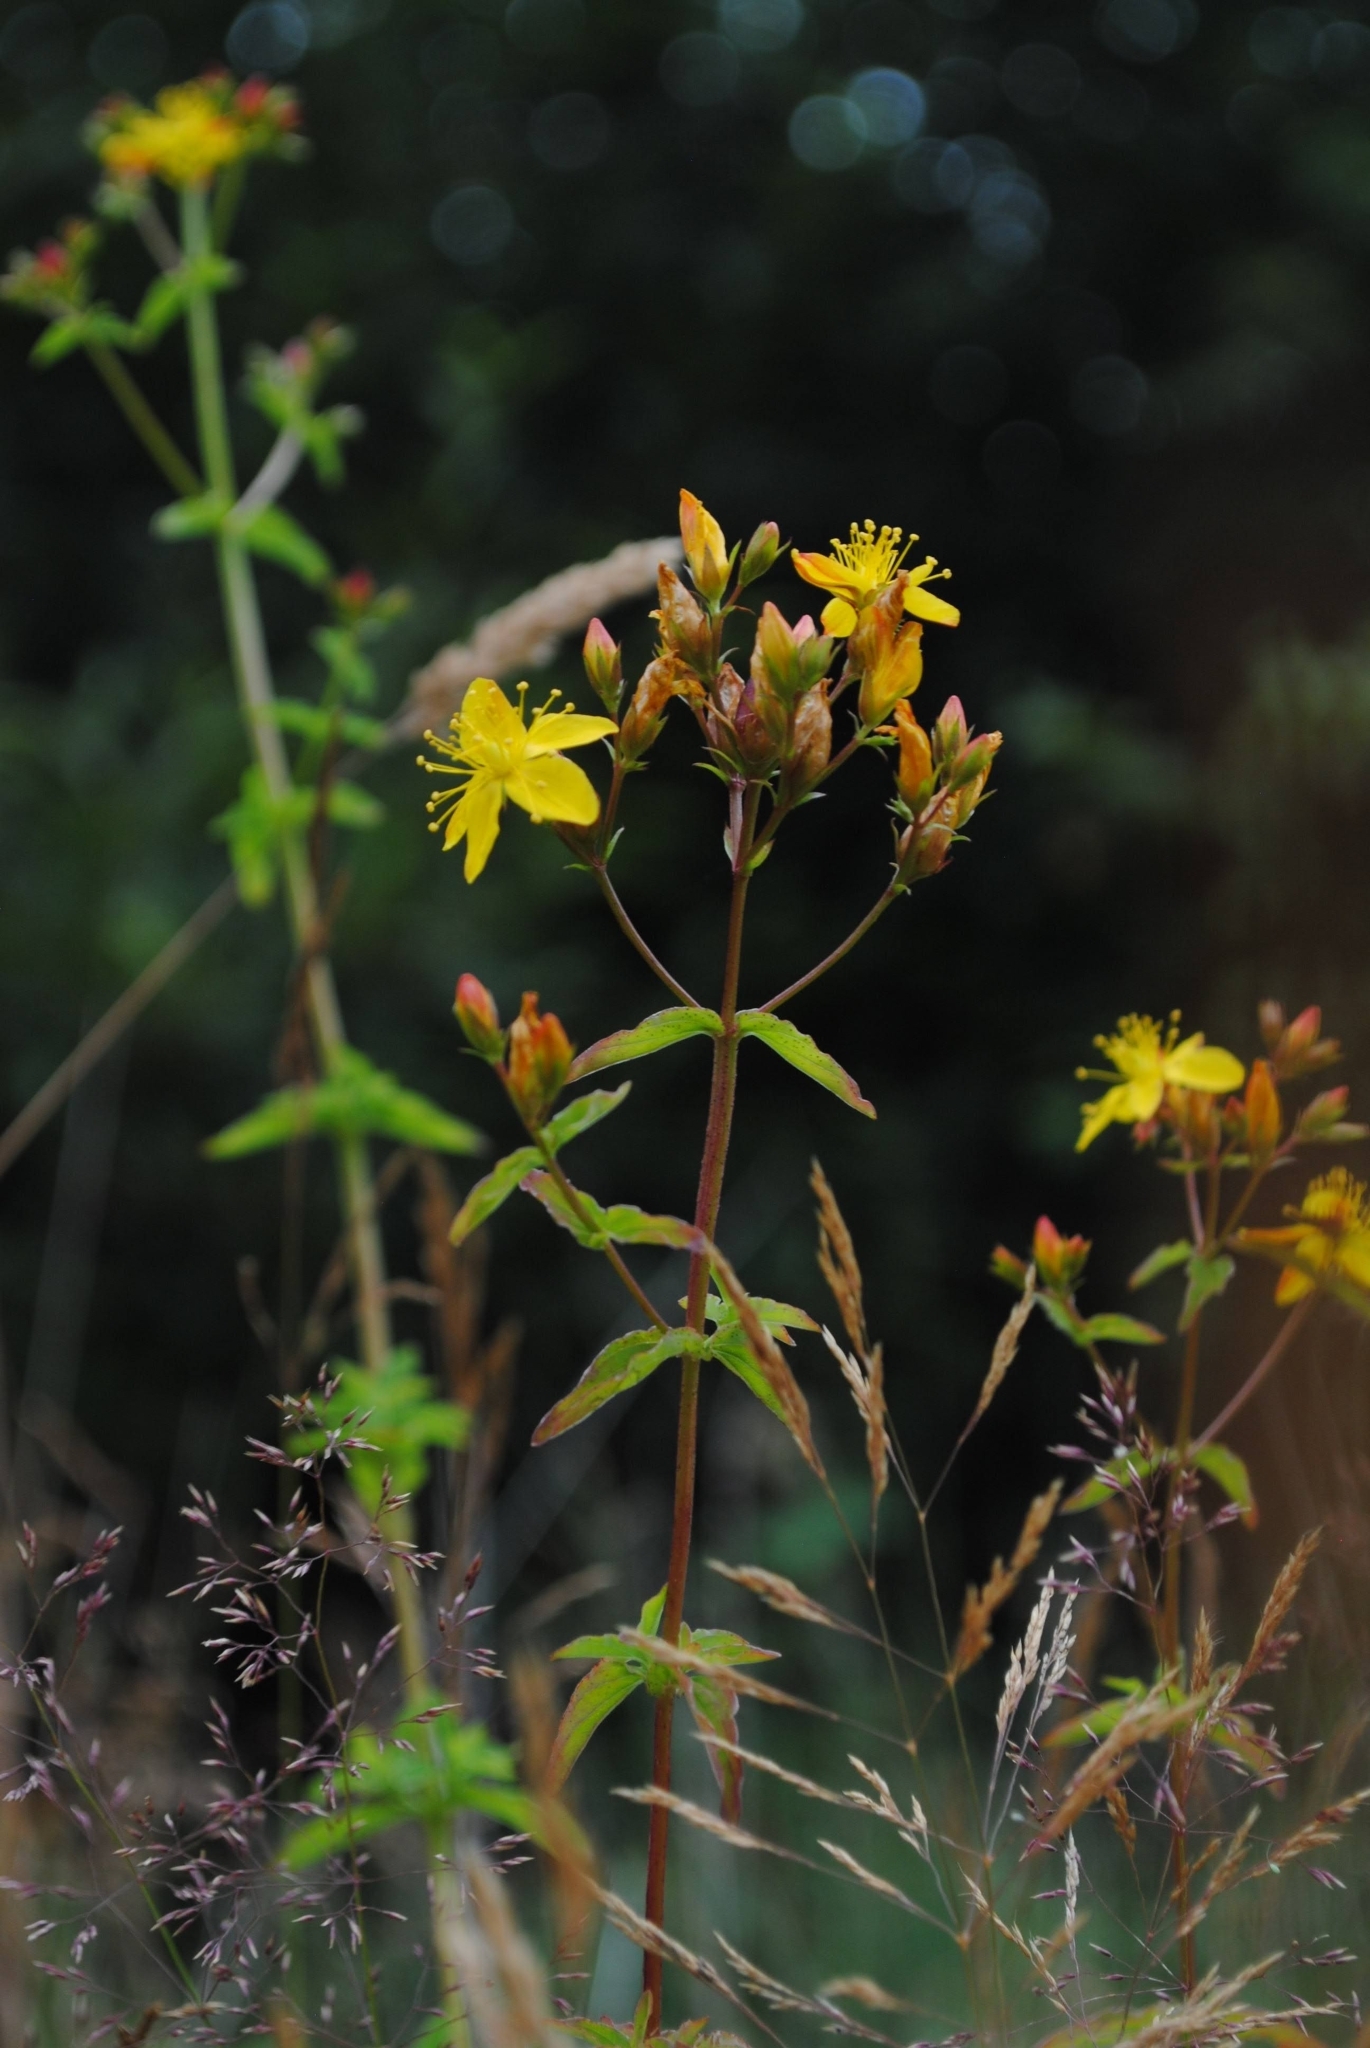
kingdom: Plantae
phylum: Tracheophyta
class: Magnoliopsida
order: Malpighiales
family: Hypericaceae
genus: Hypericum
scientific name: Hypericum undulatum
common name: Wavy st. john's-wort
